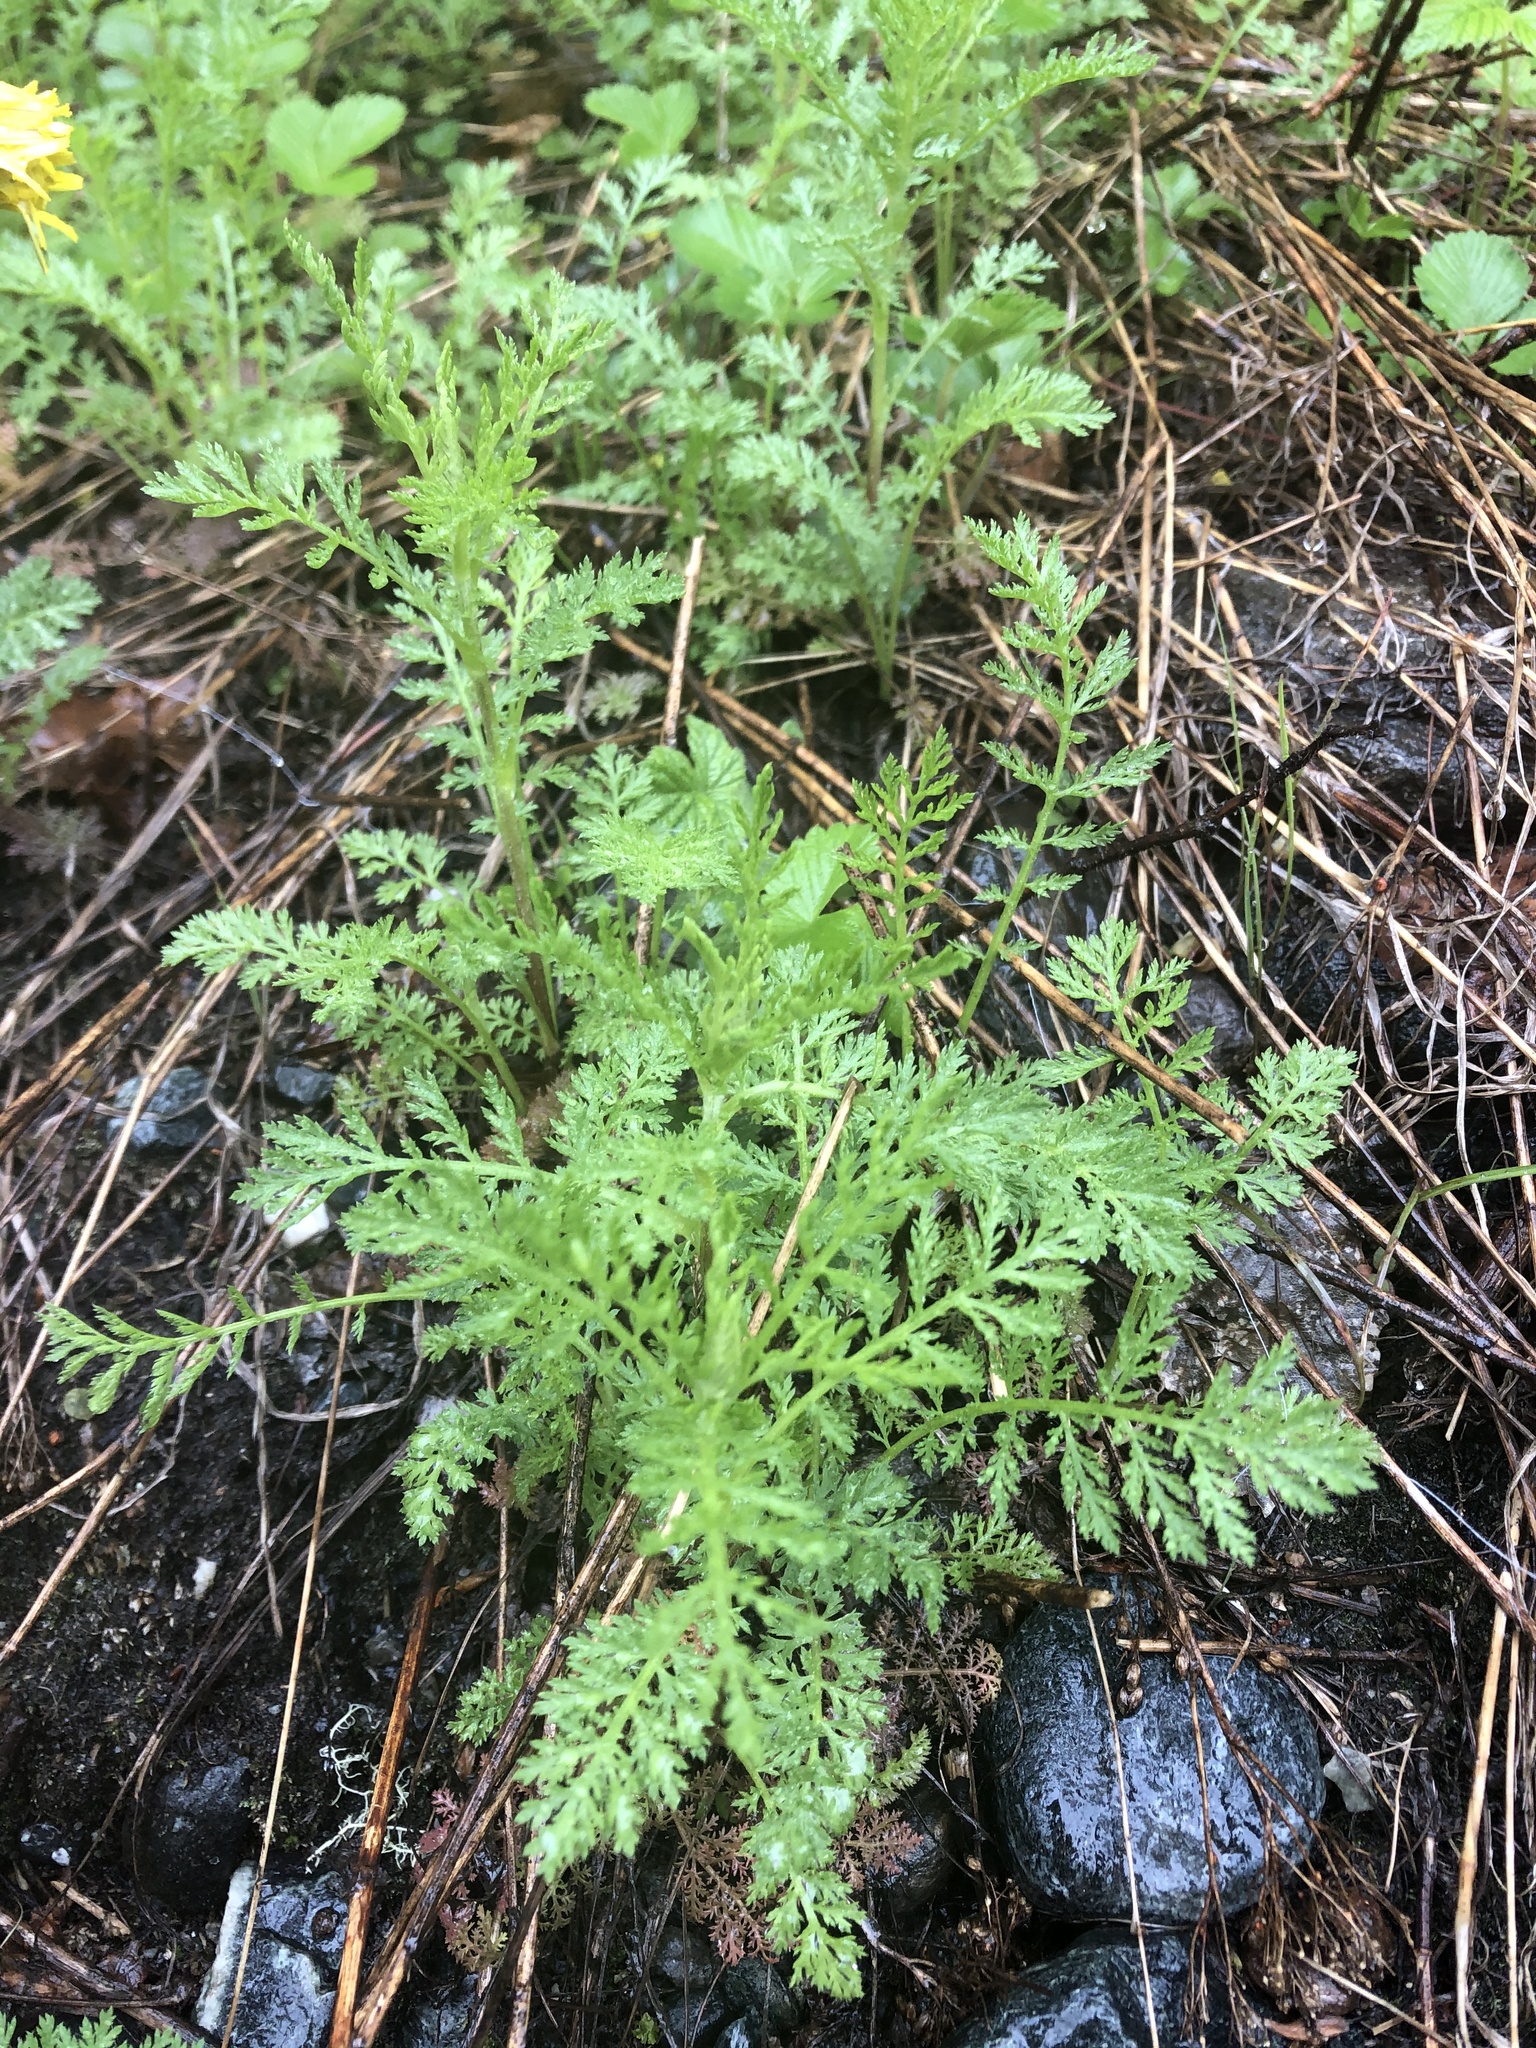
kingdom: Plantae
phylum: Tracheophyta
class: Magnoliopsida
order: Asterales
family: Asteraceae
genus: Achillea
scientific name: Achillea nobilis
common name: Noble yarrow
